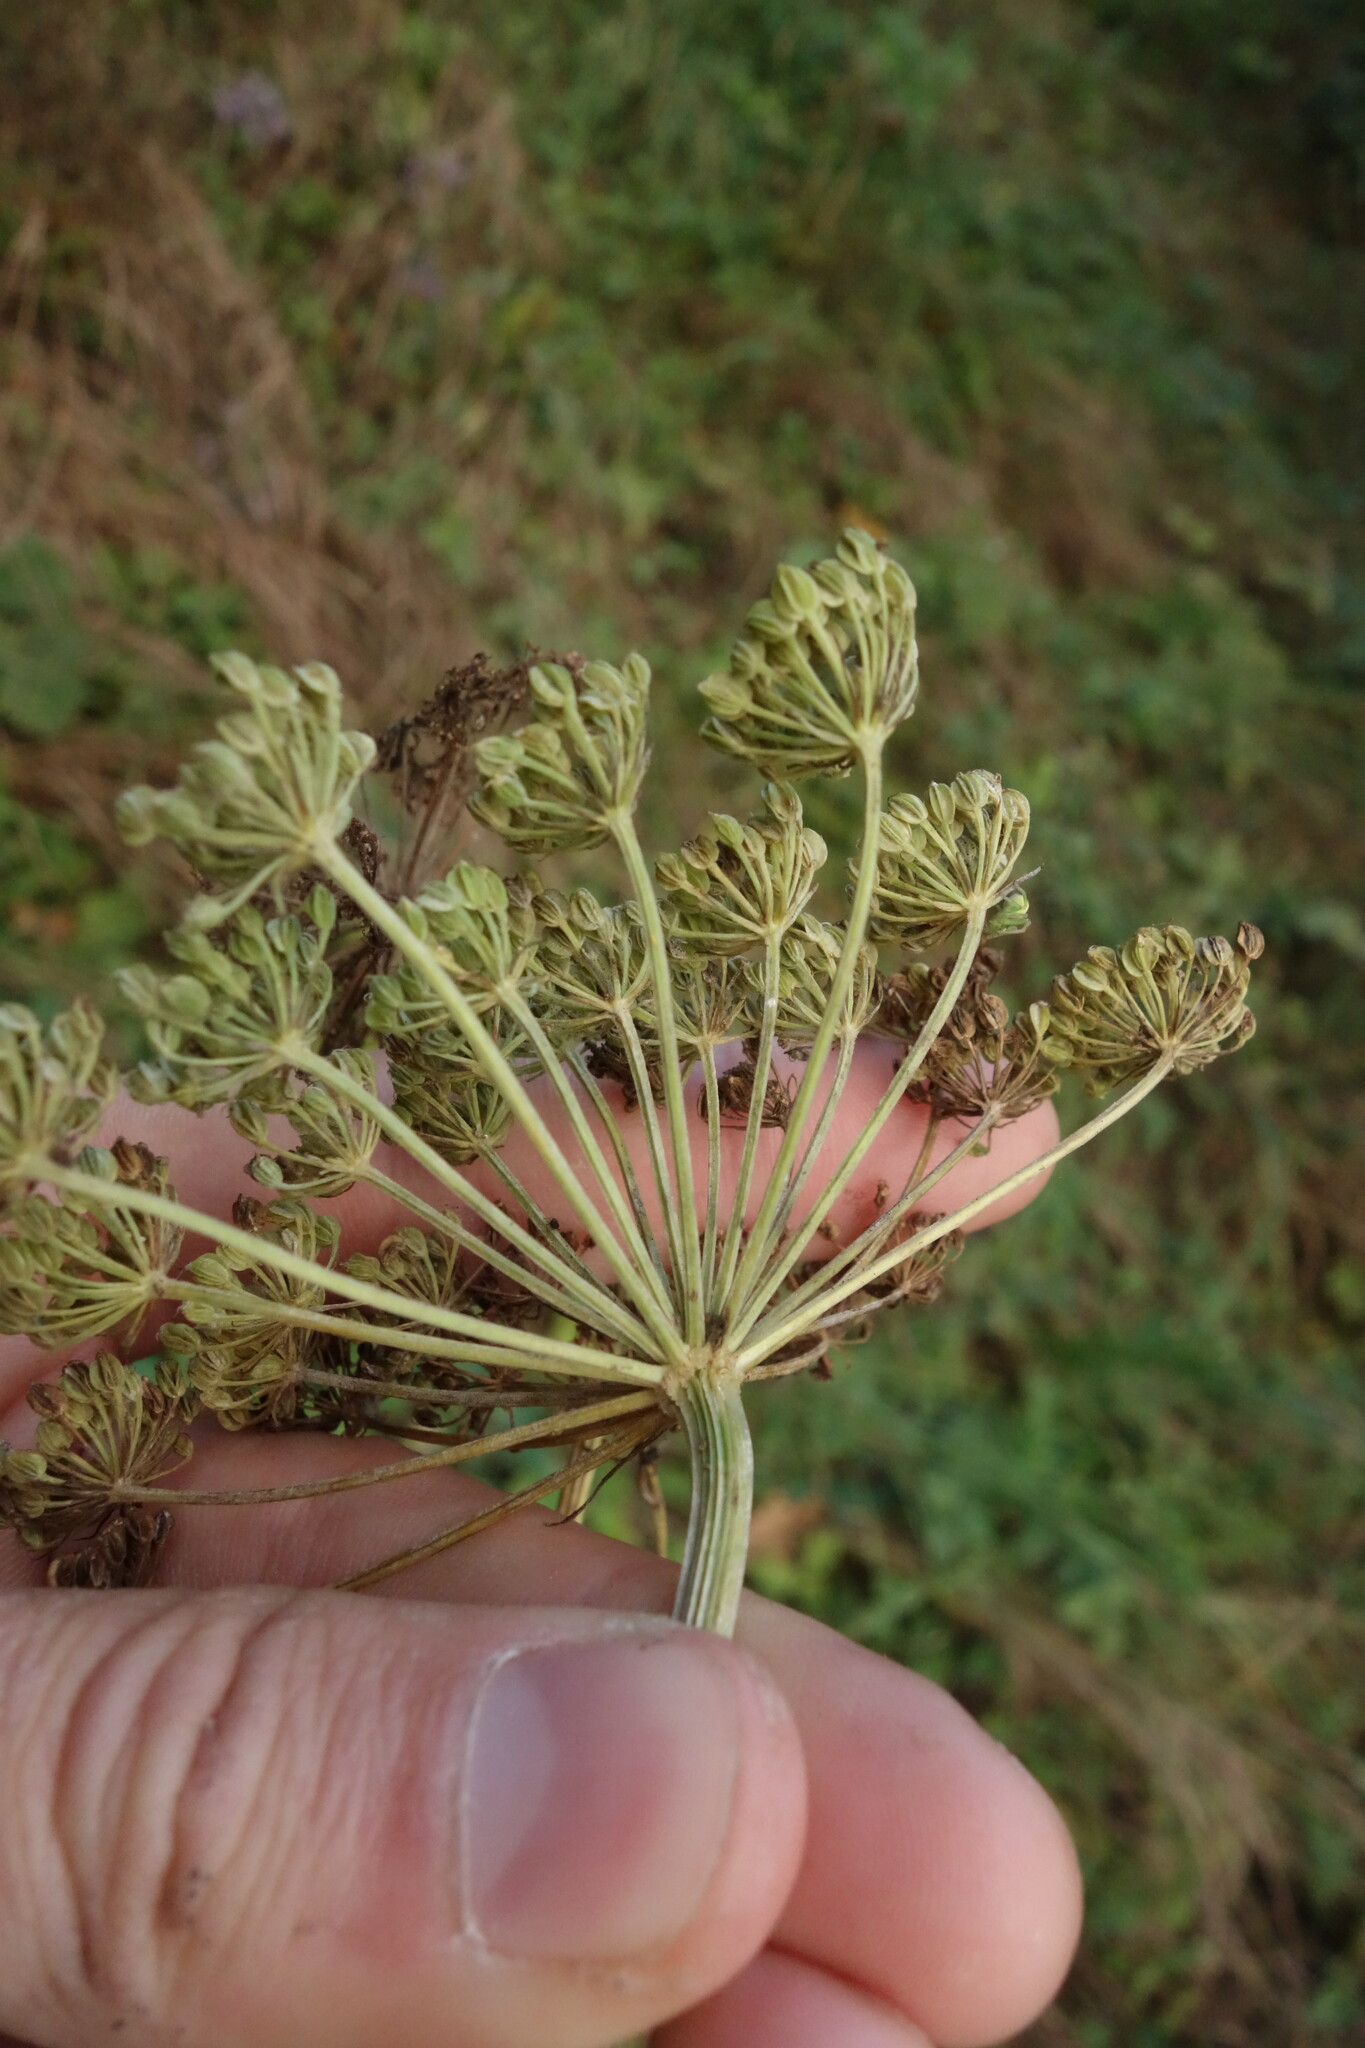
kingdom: Plantae
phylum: Tracheophyta
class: Magnoliopsida
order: Apiales
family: Apiaceae
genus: Selinum
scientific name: Selinum carvifolia
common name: Cambridge milk-parsley
